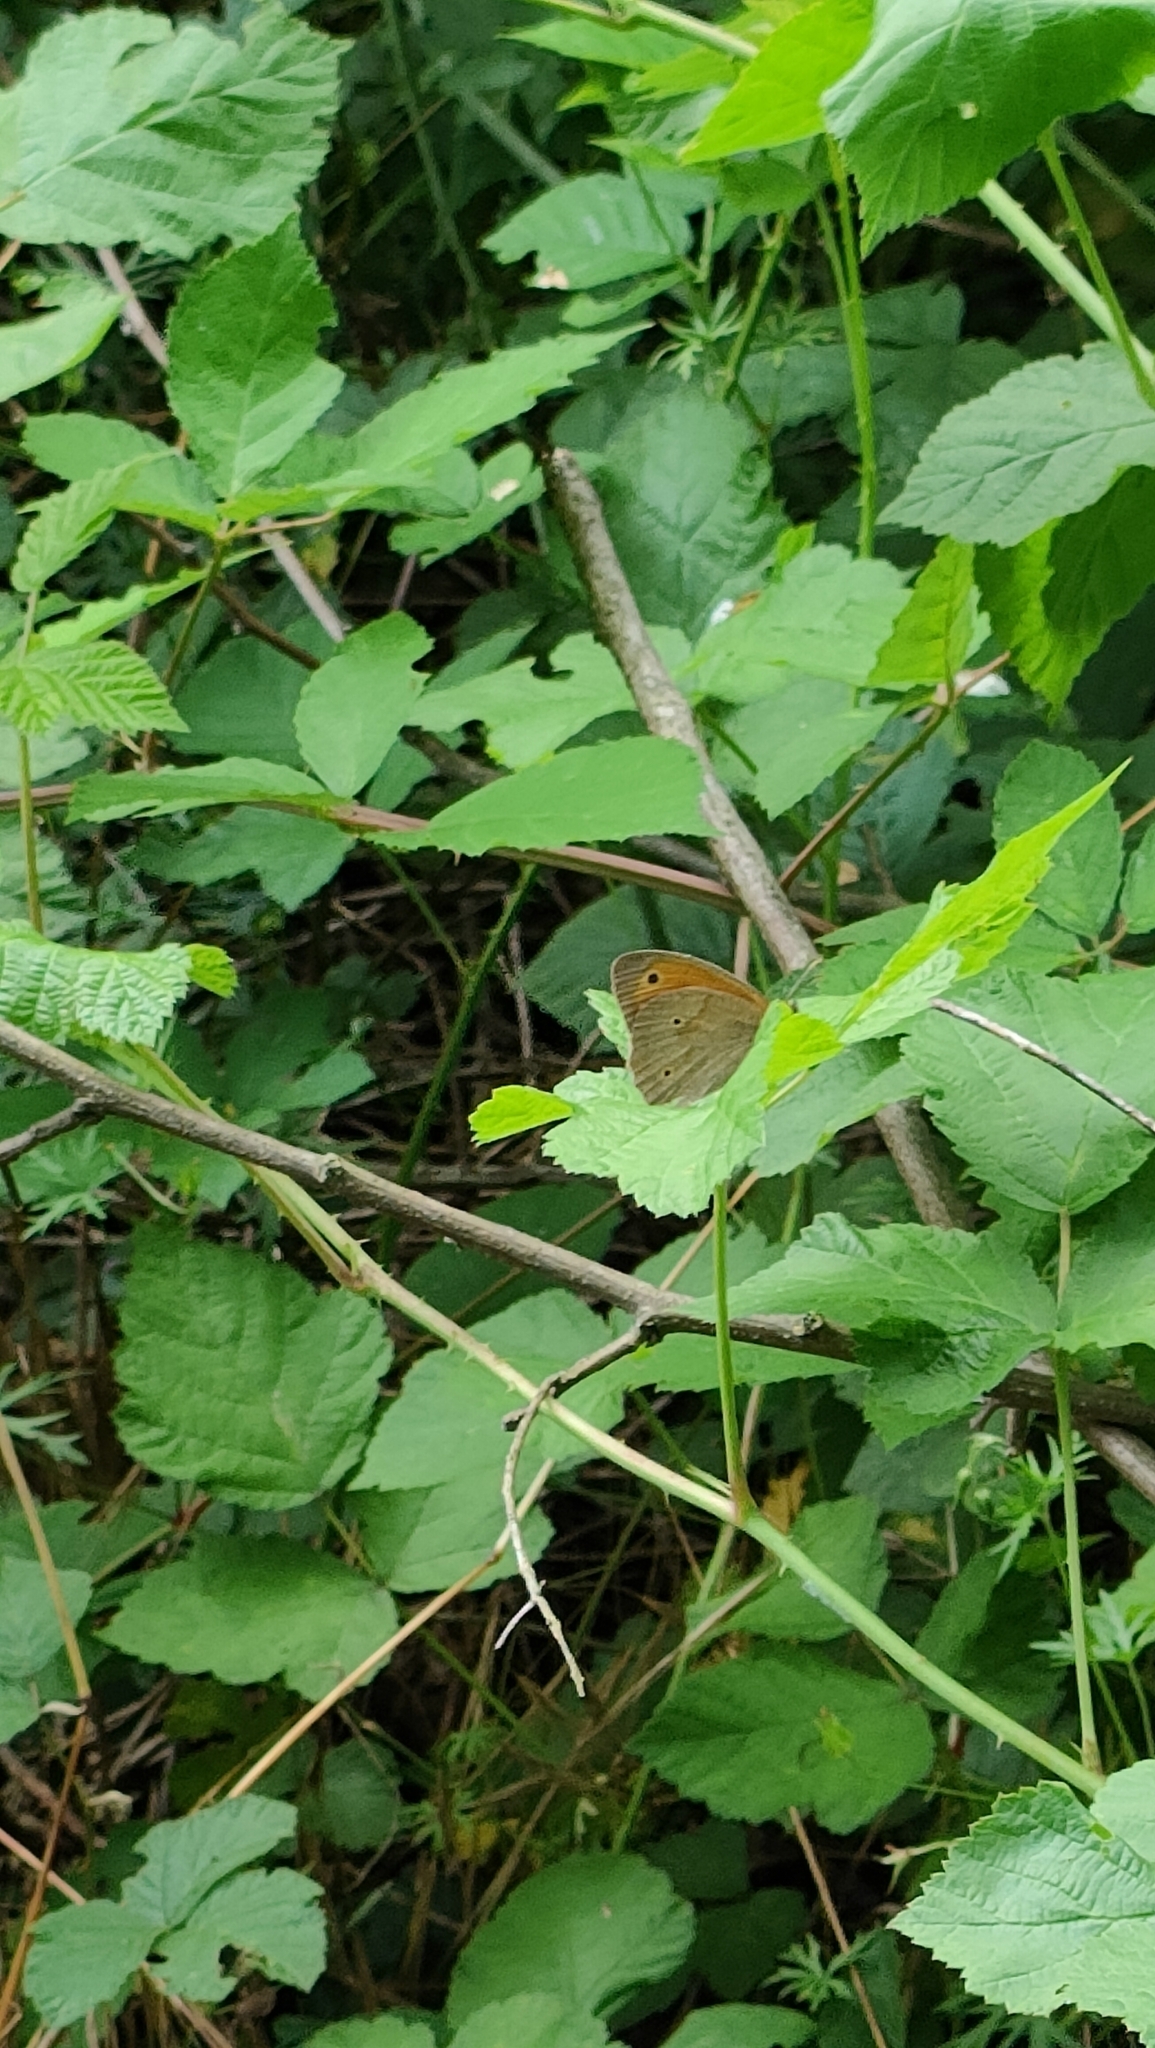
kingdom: Animalia
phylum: Arthropoda
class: Insecta
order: Lepidoptera
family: Nymphalidae
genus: Maniola
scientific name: Maniola jurtina
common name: Meadow brown
